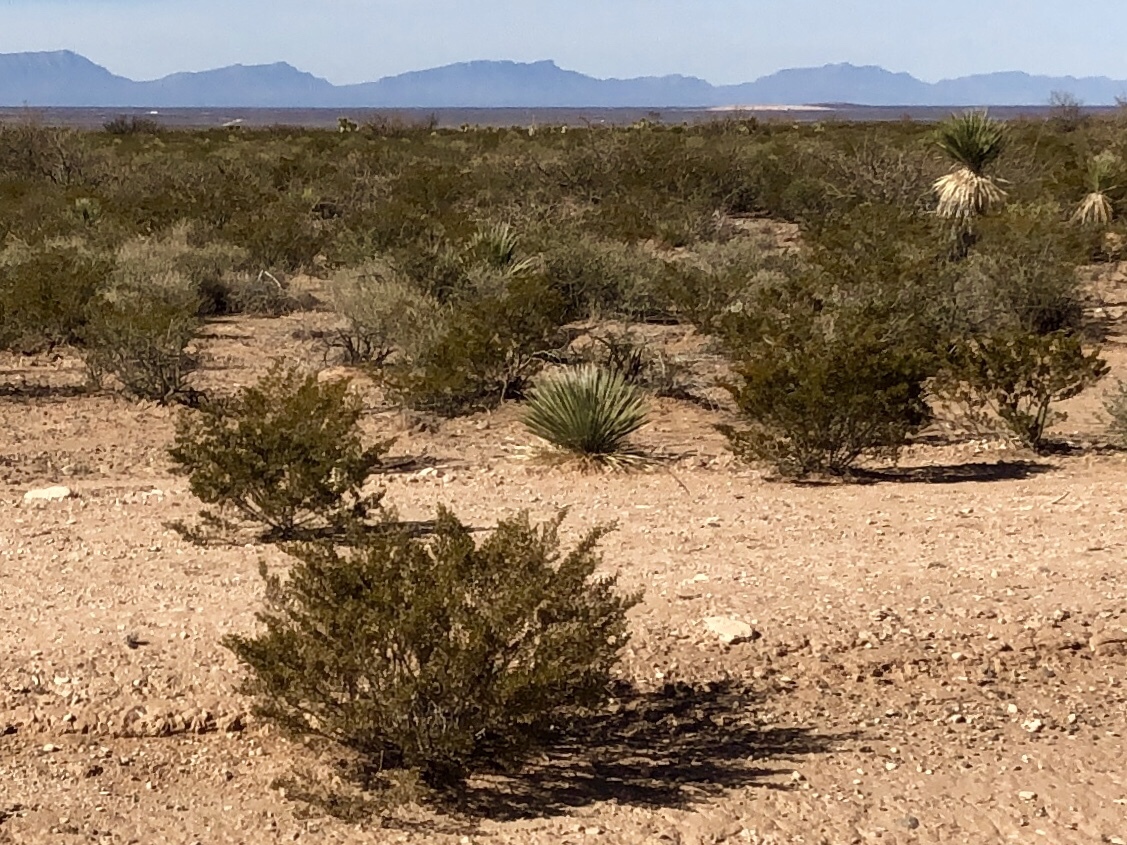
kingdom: Plantae
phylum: Tracheophyta
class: Magnoliopsida
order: Zygophyllales
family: Zygophyllaceae
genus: Larrea
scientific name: Larrea tridentata
